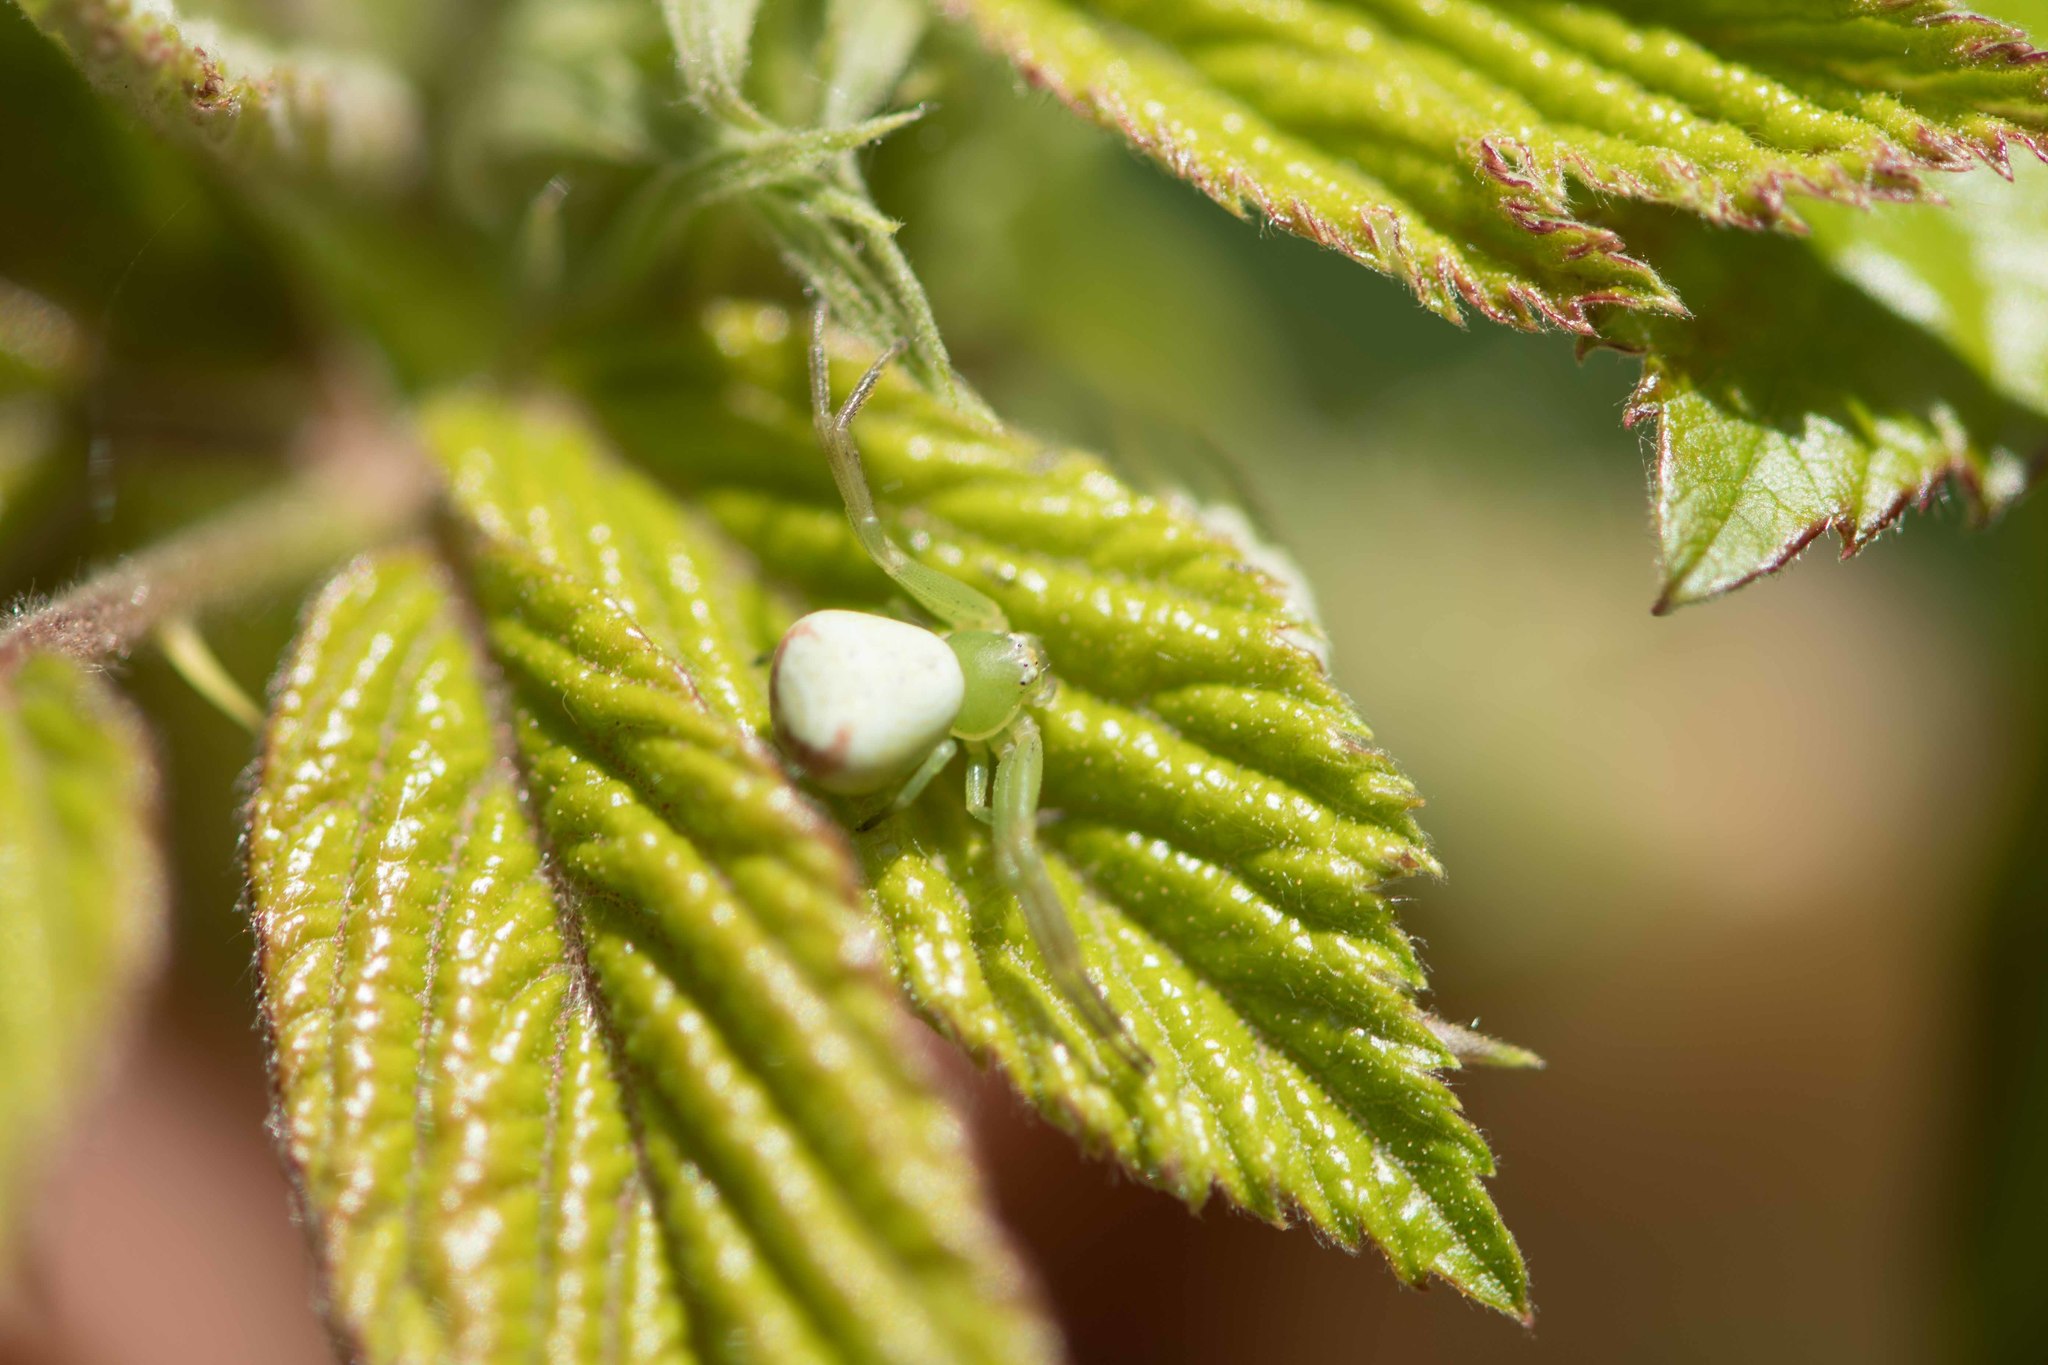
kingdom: Animalia
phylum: Arthropoda
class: Arachnida
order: Araneae
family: Thomisidae
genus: Ebrechtella
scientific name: Ebrechtella tricuspidata
